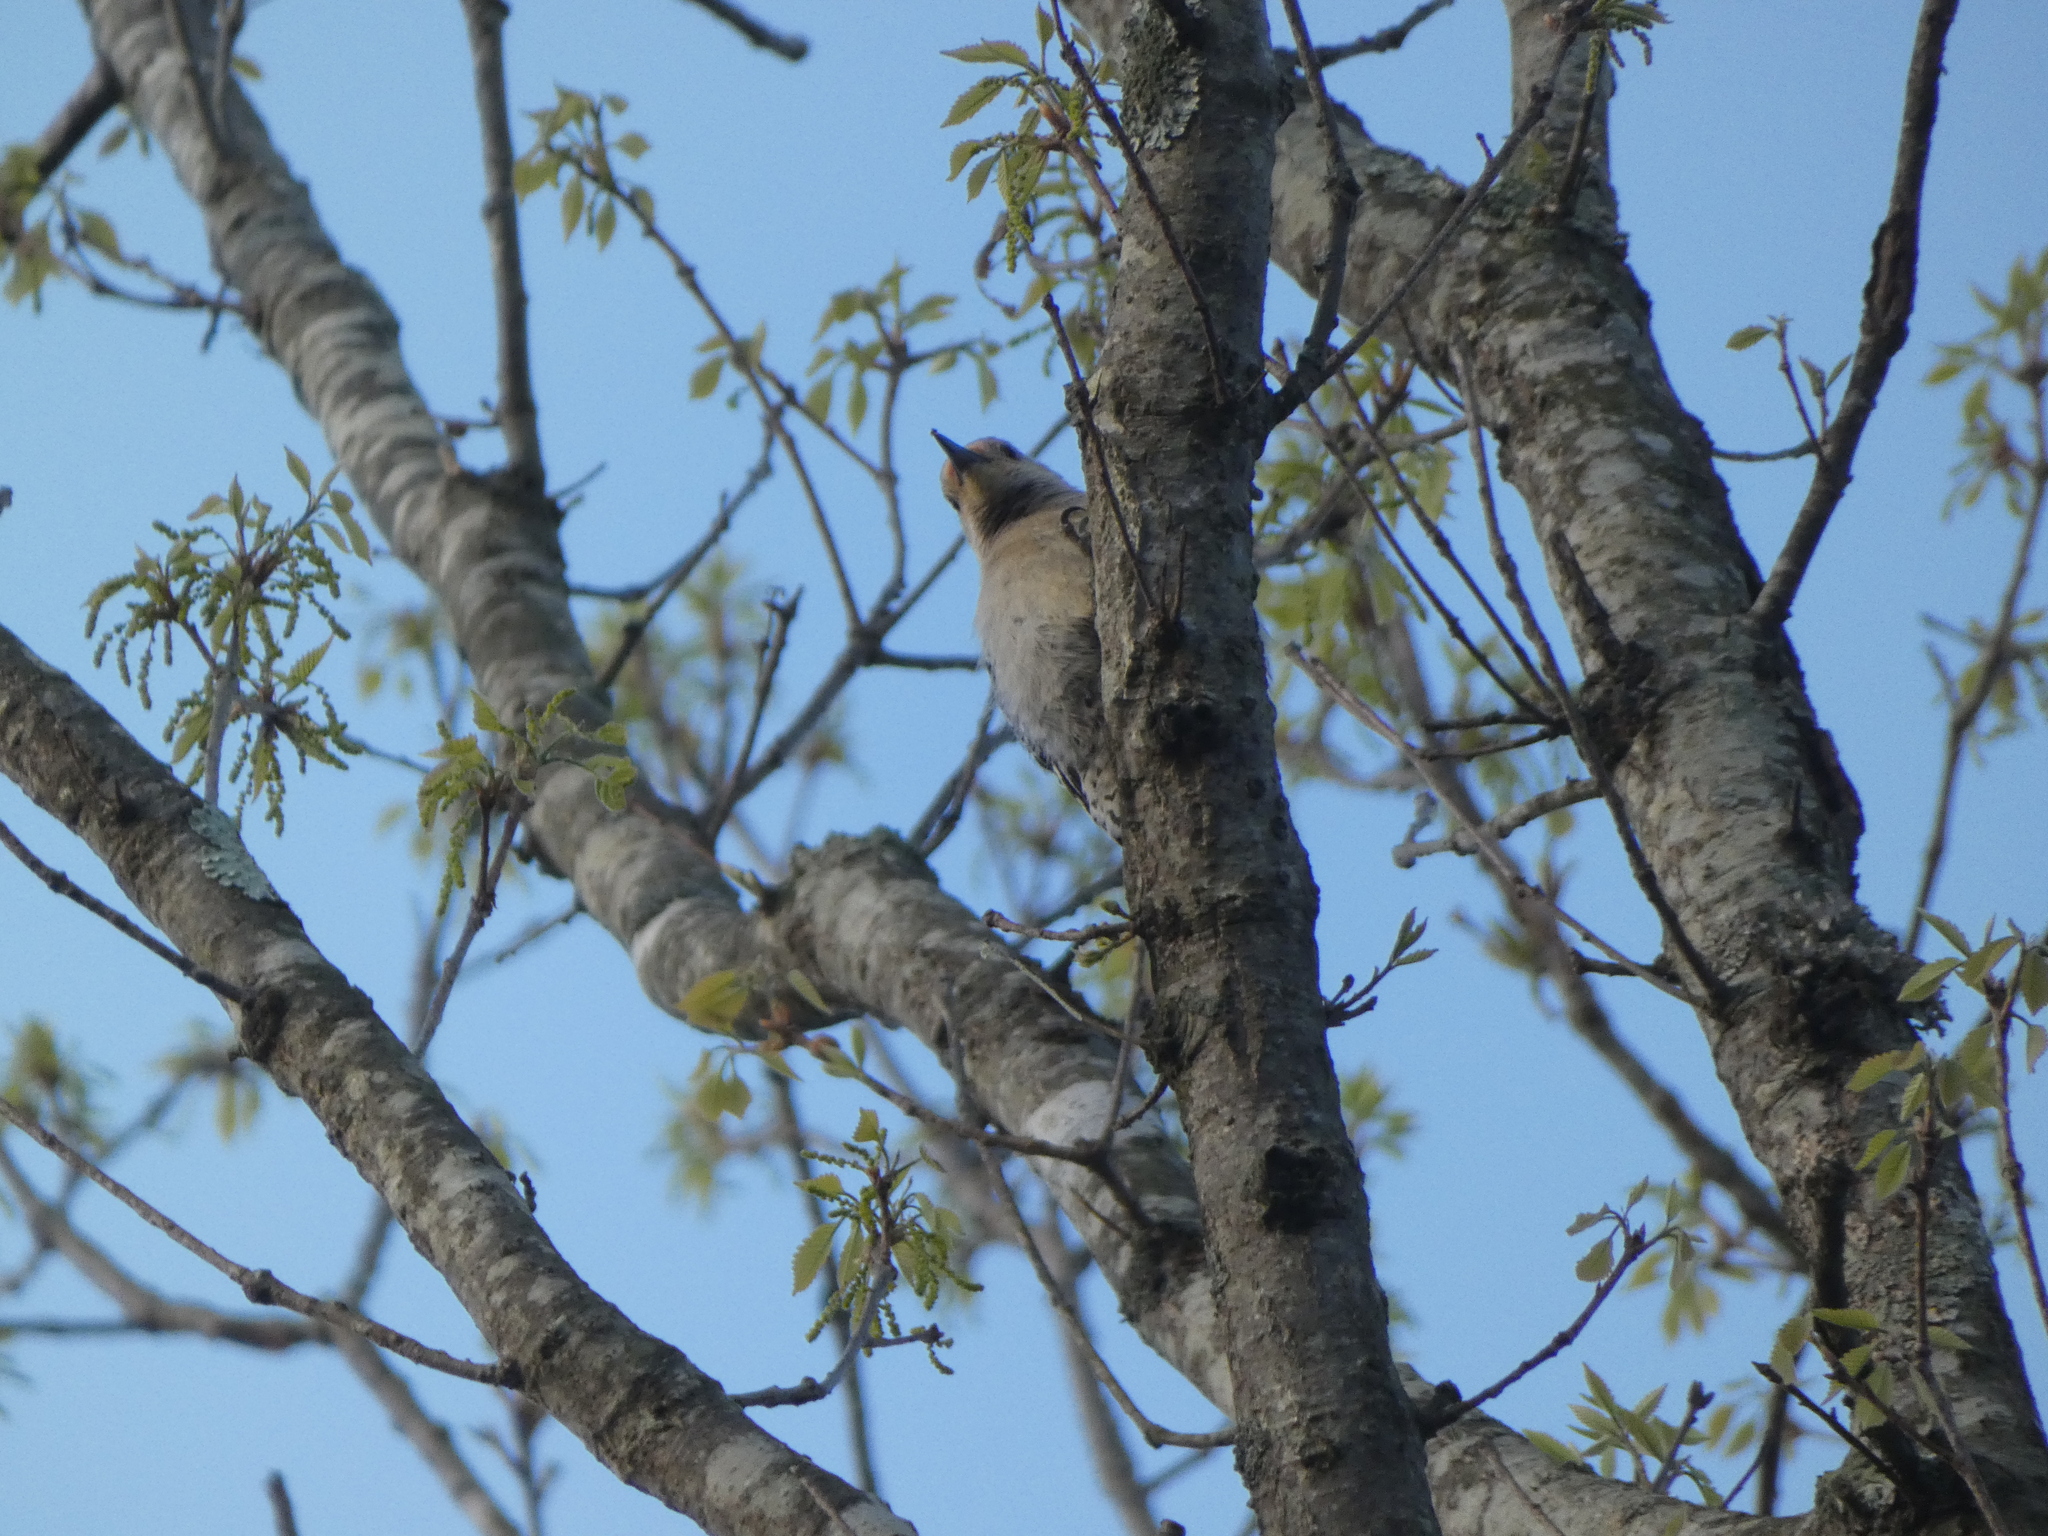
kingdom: Animalia
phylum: Chordata
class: Aves
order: Piciformes
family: Picidae
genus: Melanerpes
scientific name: Melanerpes carolinus
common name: Red-bellied woodpecker
